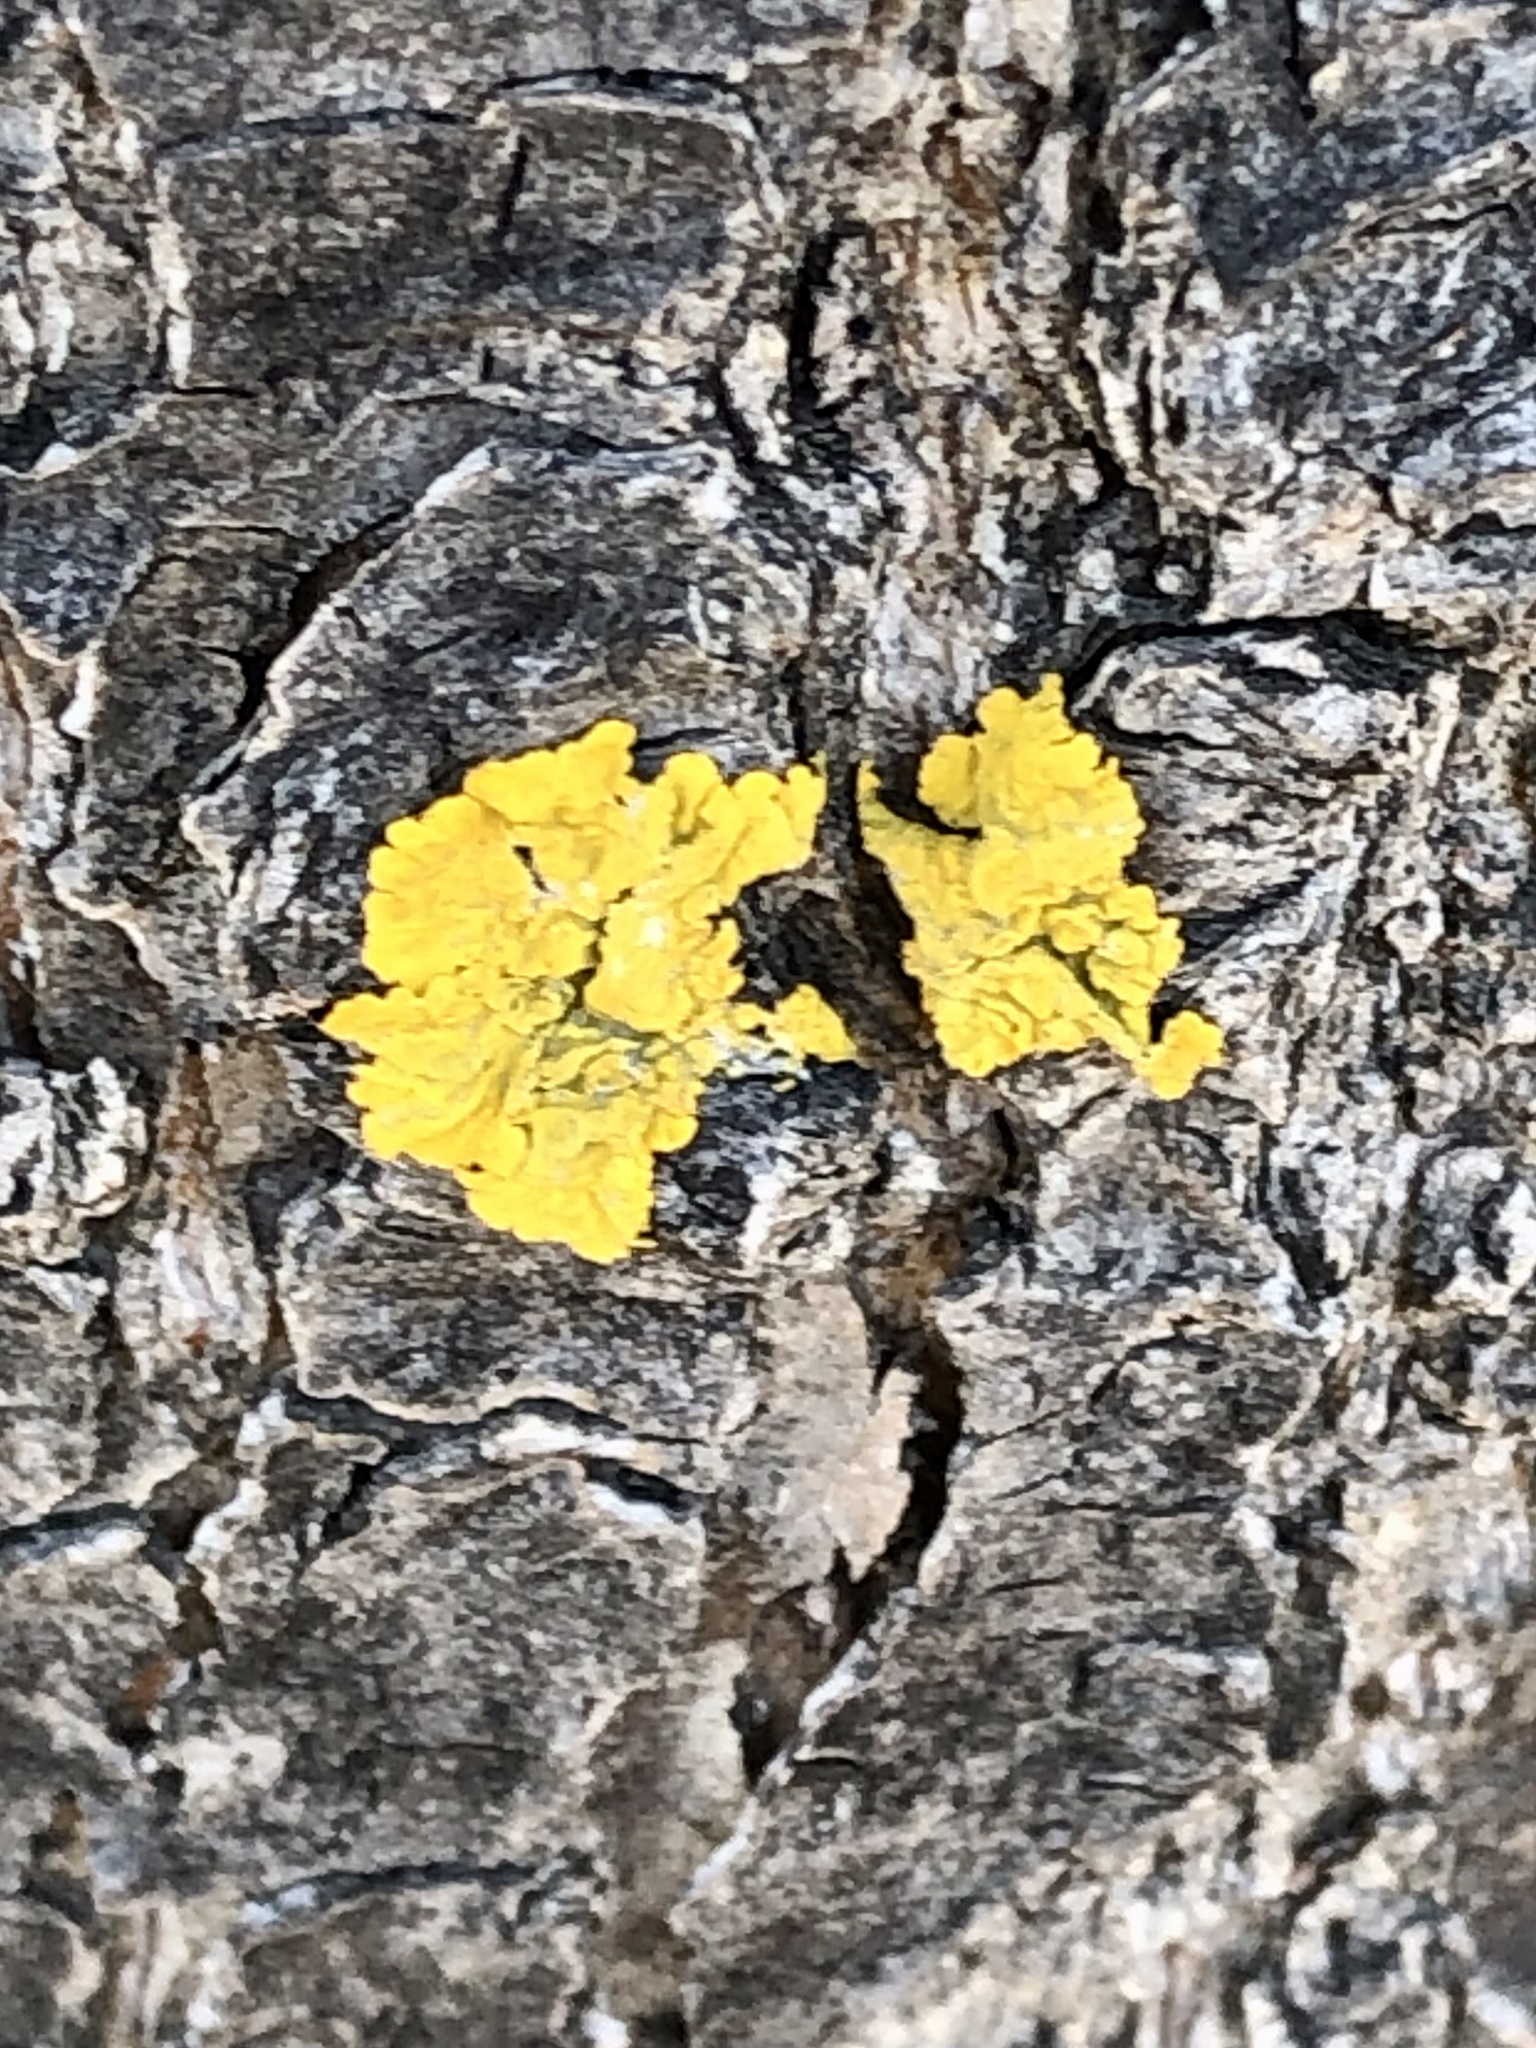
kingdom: Fungi
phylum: Ascomycota
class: Lecanoromycetes
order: Teloschistales
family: Teloschistaceae
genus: Xanthoria
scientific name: Xanthoria parietina
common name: Common orange lichen
